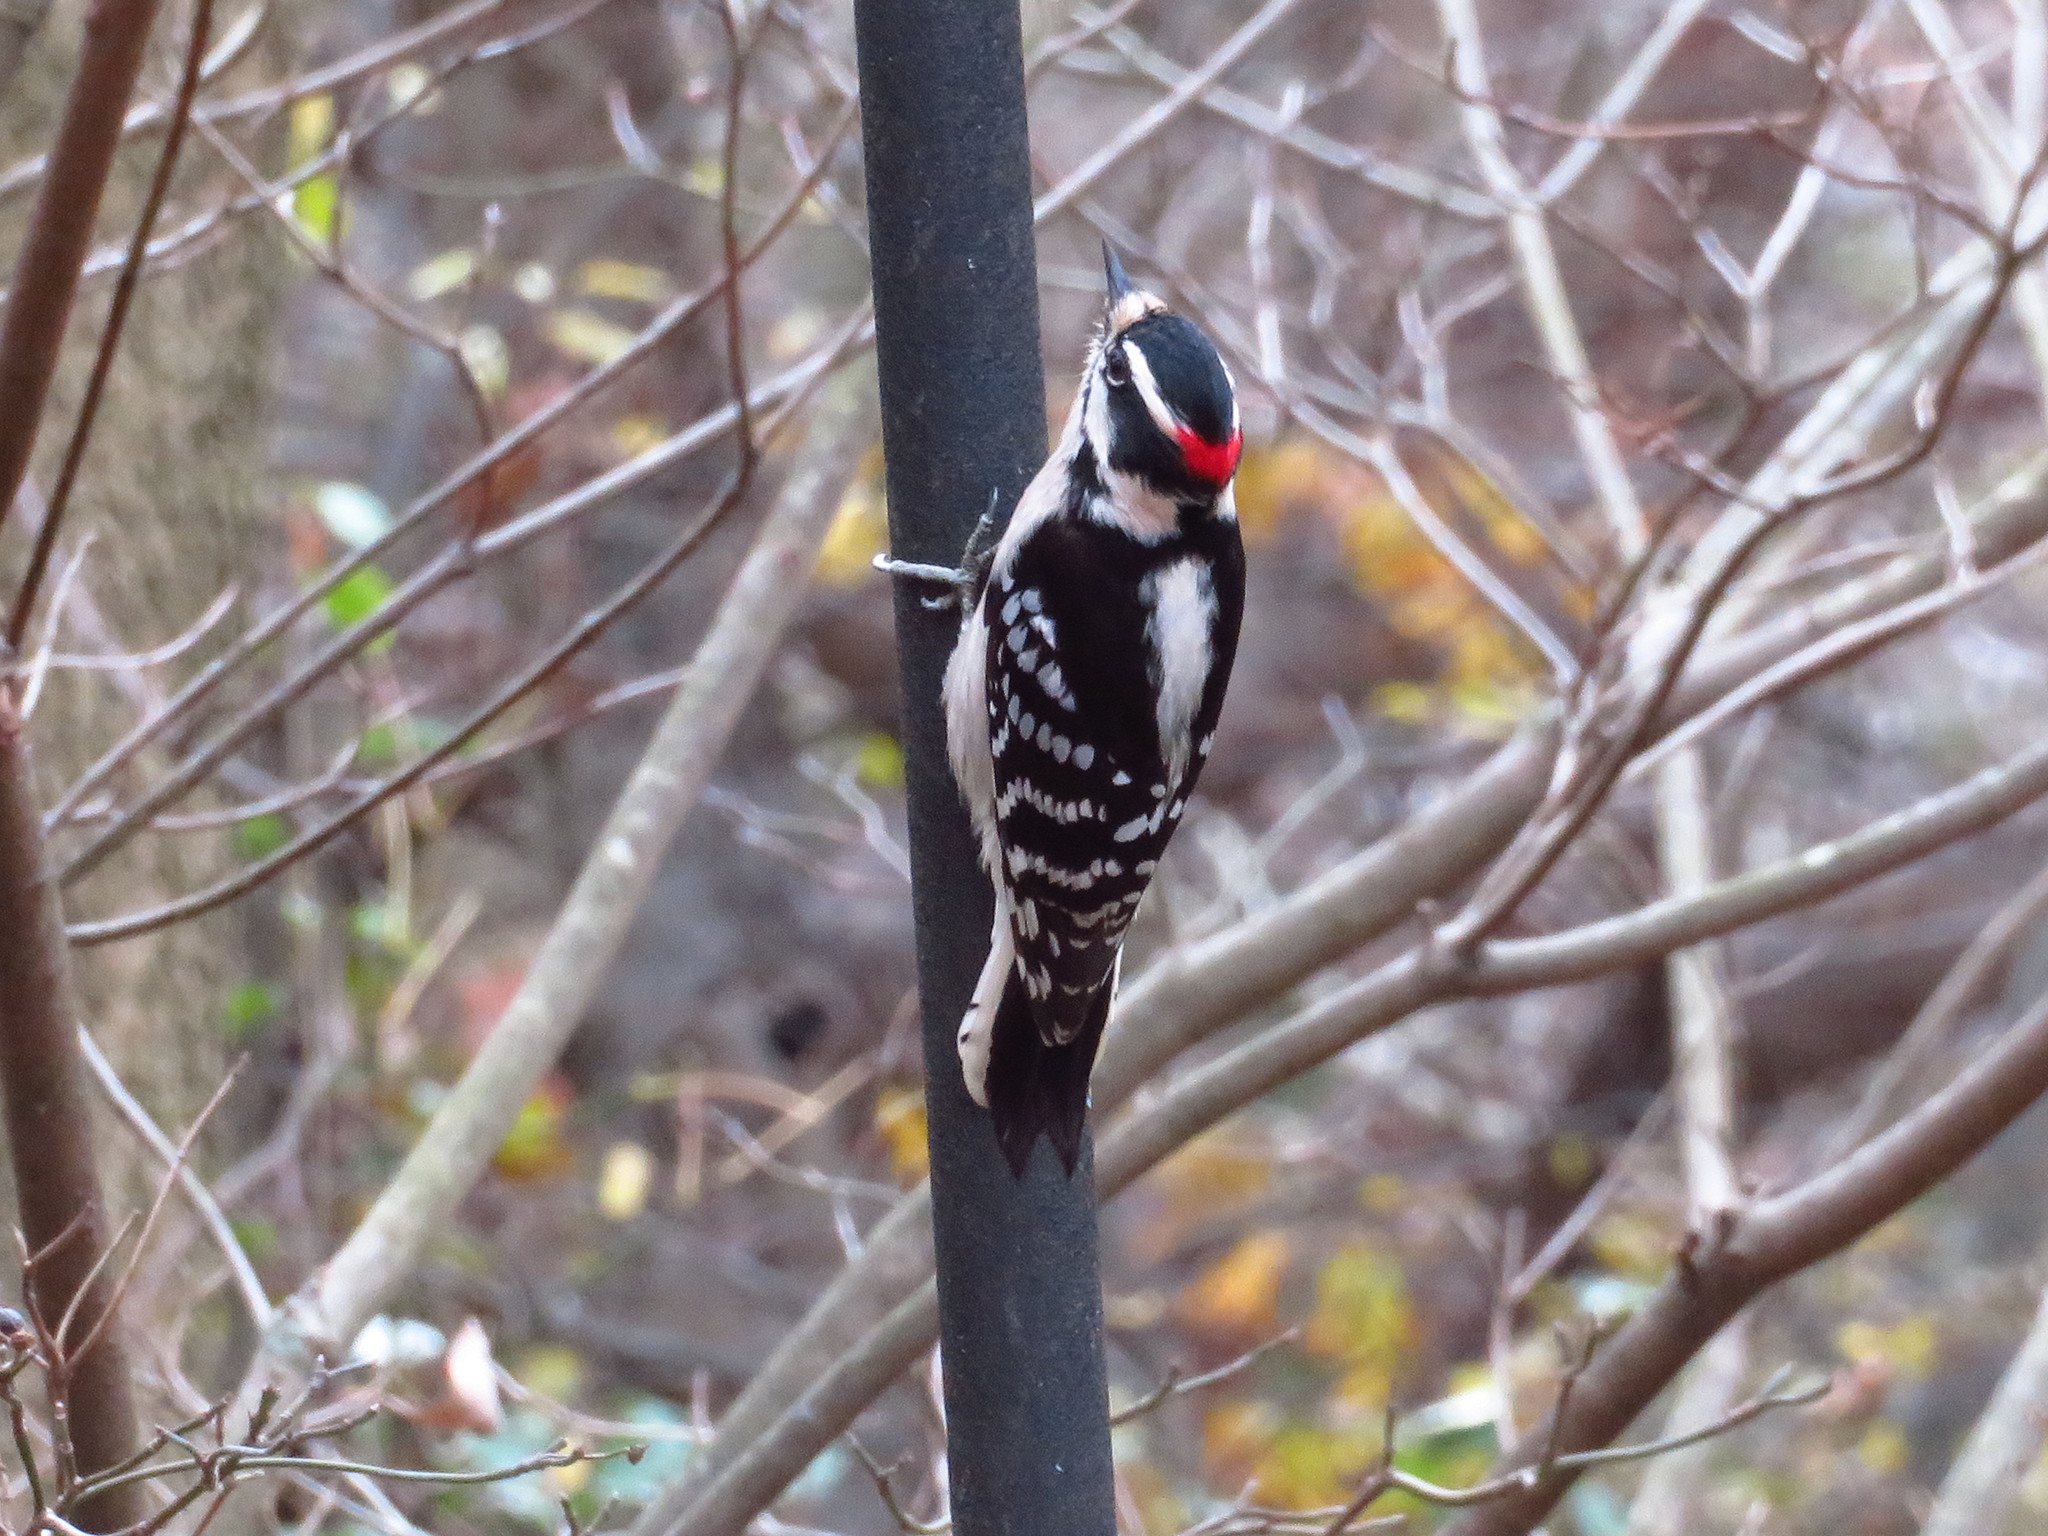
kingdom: Animalia
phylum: Chordata
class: Aves
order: Piciformes
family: Picidae
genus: Dryobates
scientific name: Dryobates pubescens
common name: Downy woodpecker
